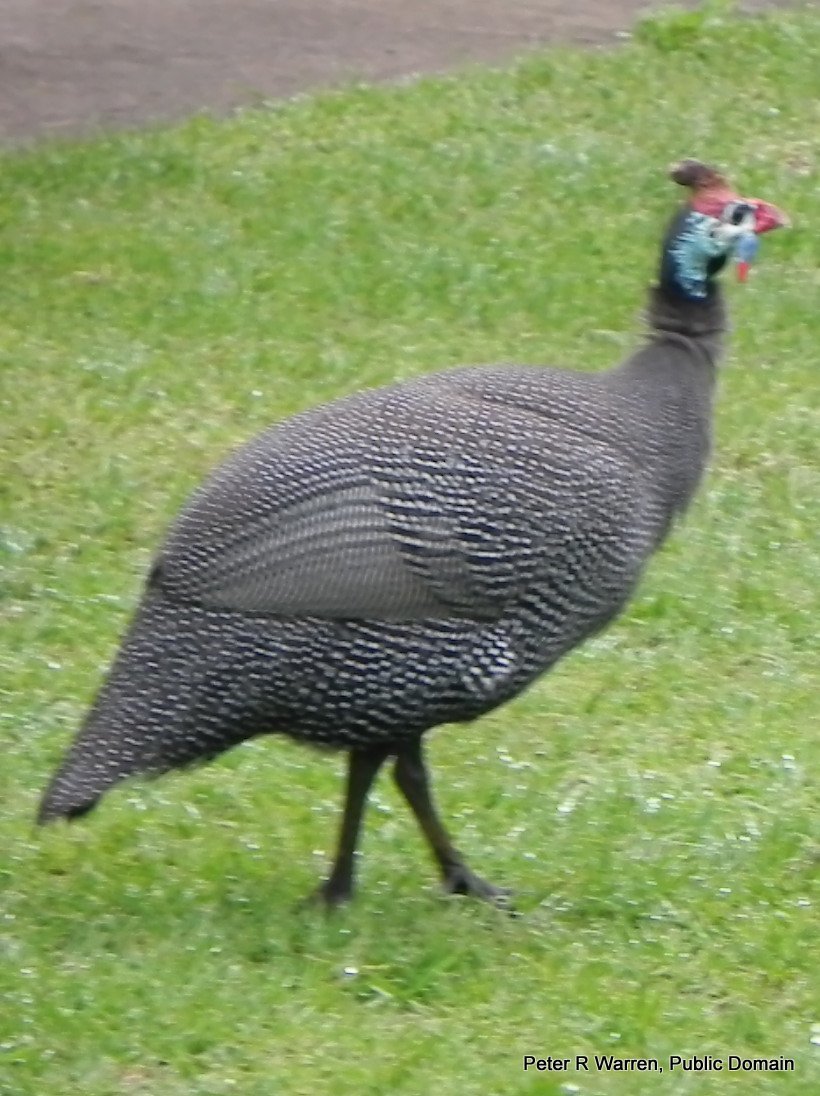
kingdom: Animalia
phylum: Chordata
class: Aves
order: Galliformes
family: Numididae
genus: Numida
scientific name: Numida meleagris
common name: Helmeted guineafowl
